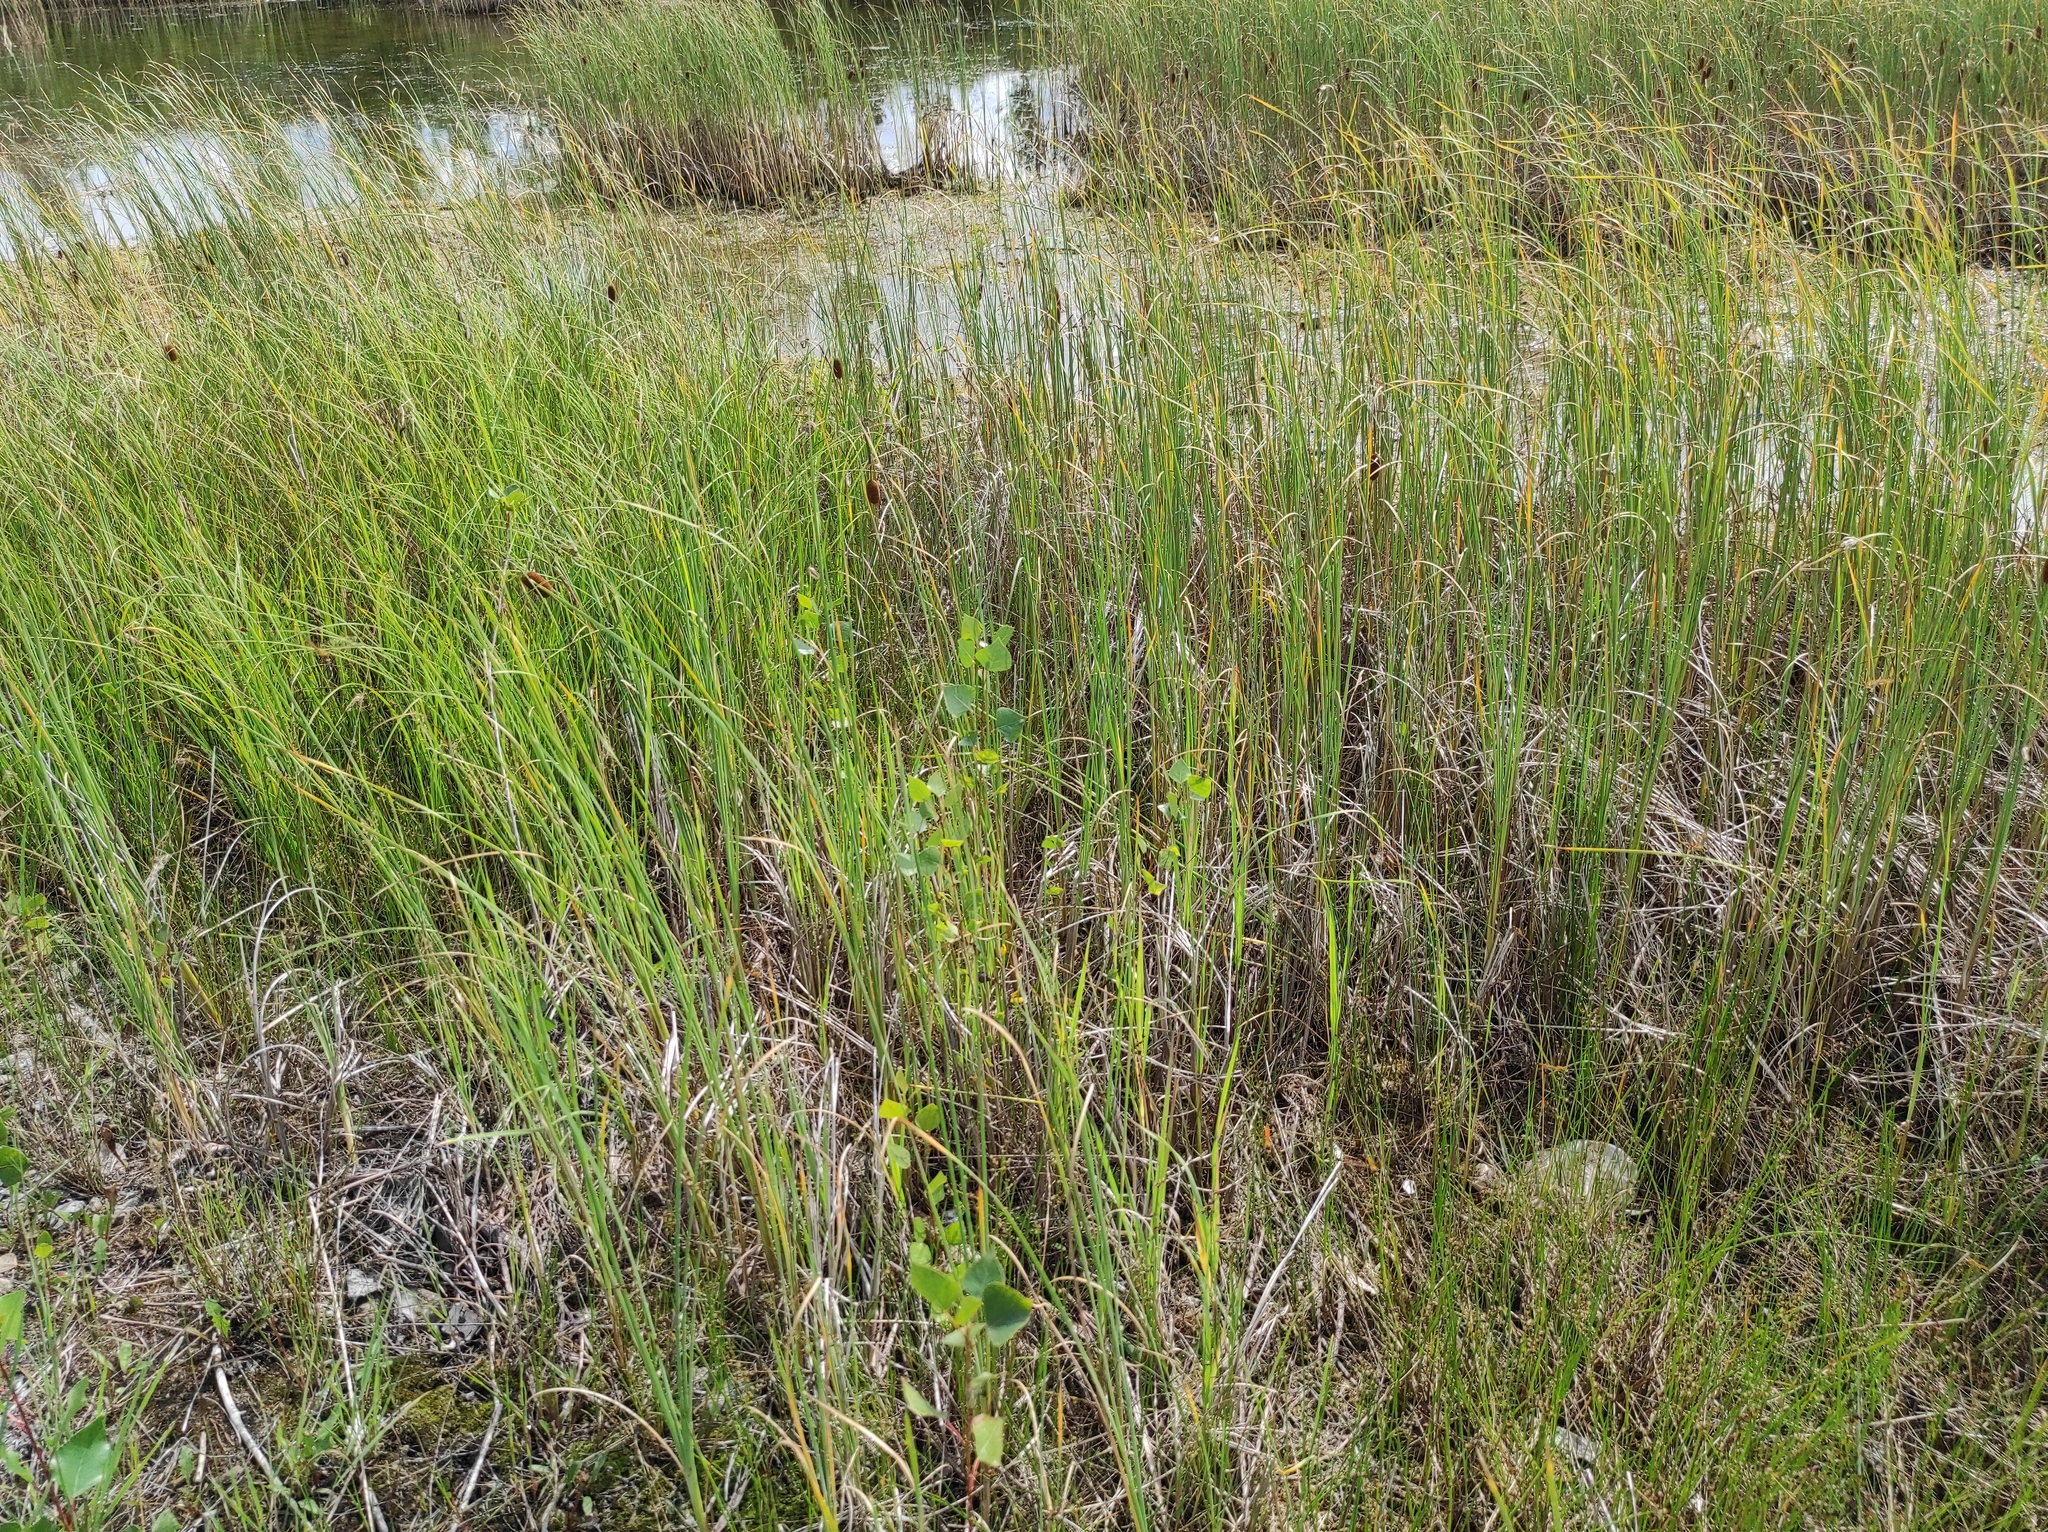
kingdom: Plantae
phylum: Tracheophyta
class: Liliopsida
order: Poales
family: Typhaceae
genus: Typha
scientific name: Typha laxmannii
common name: Laxman’s bulrush
